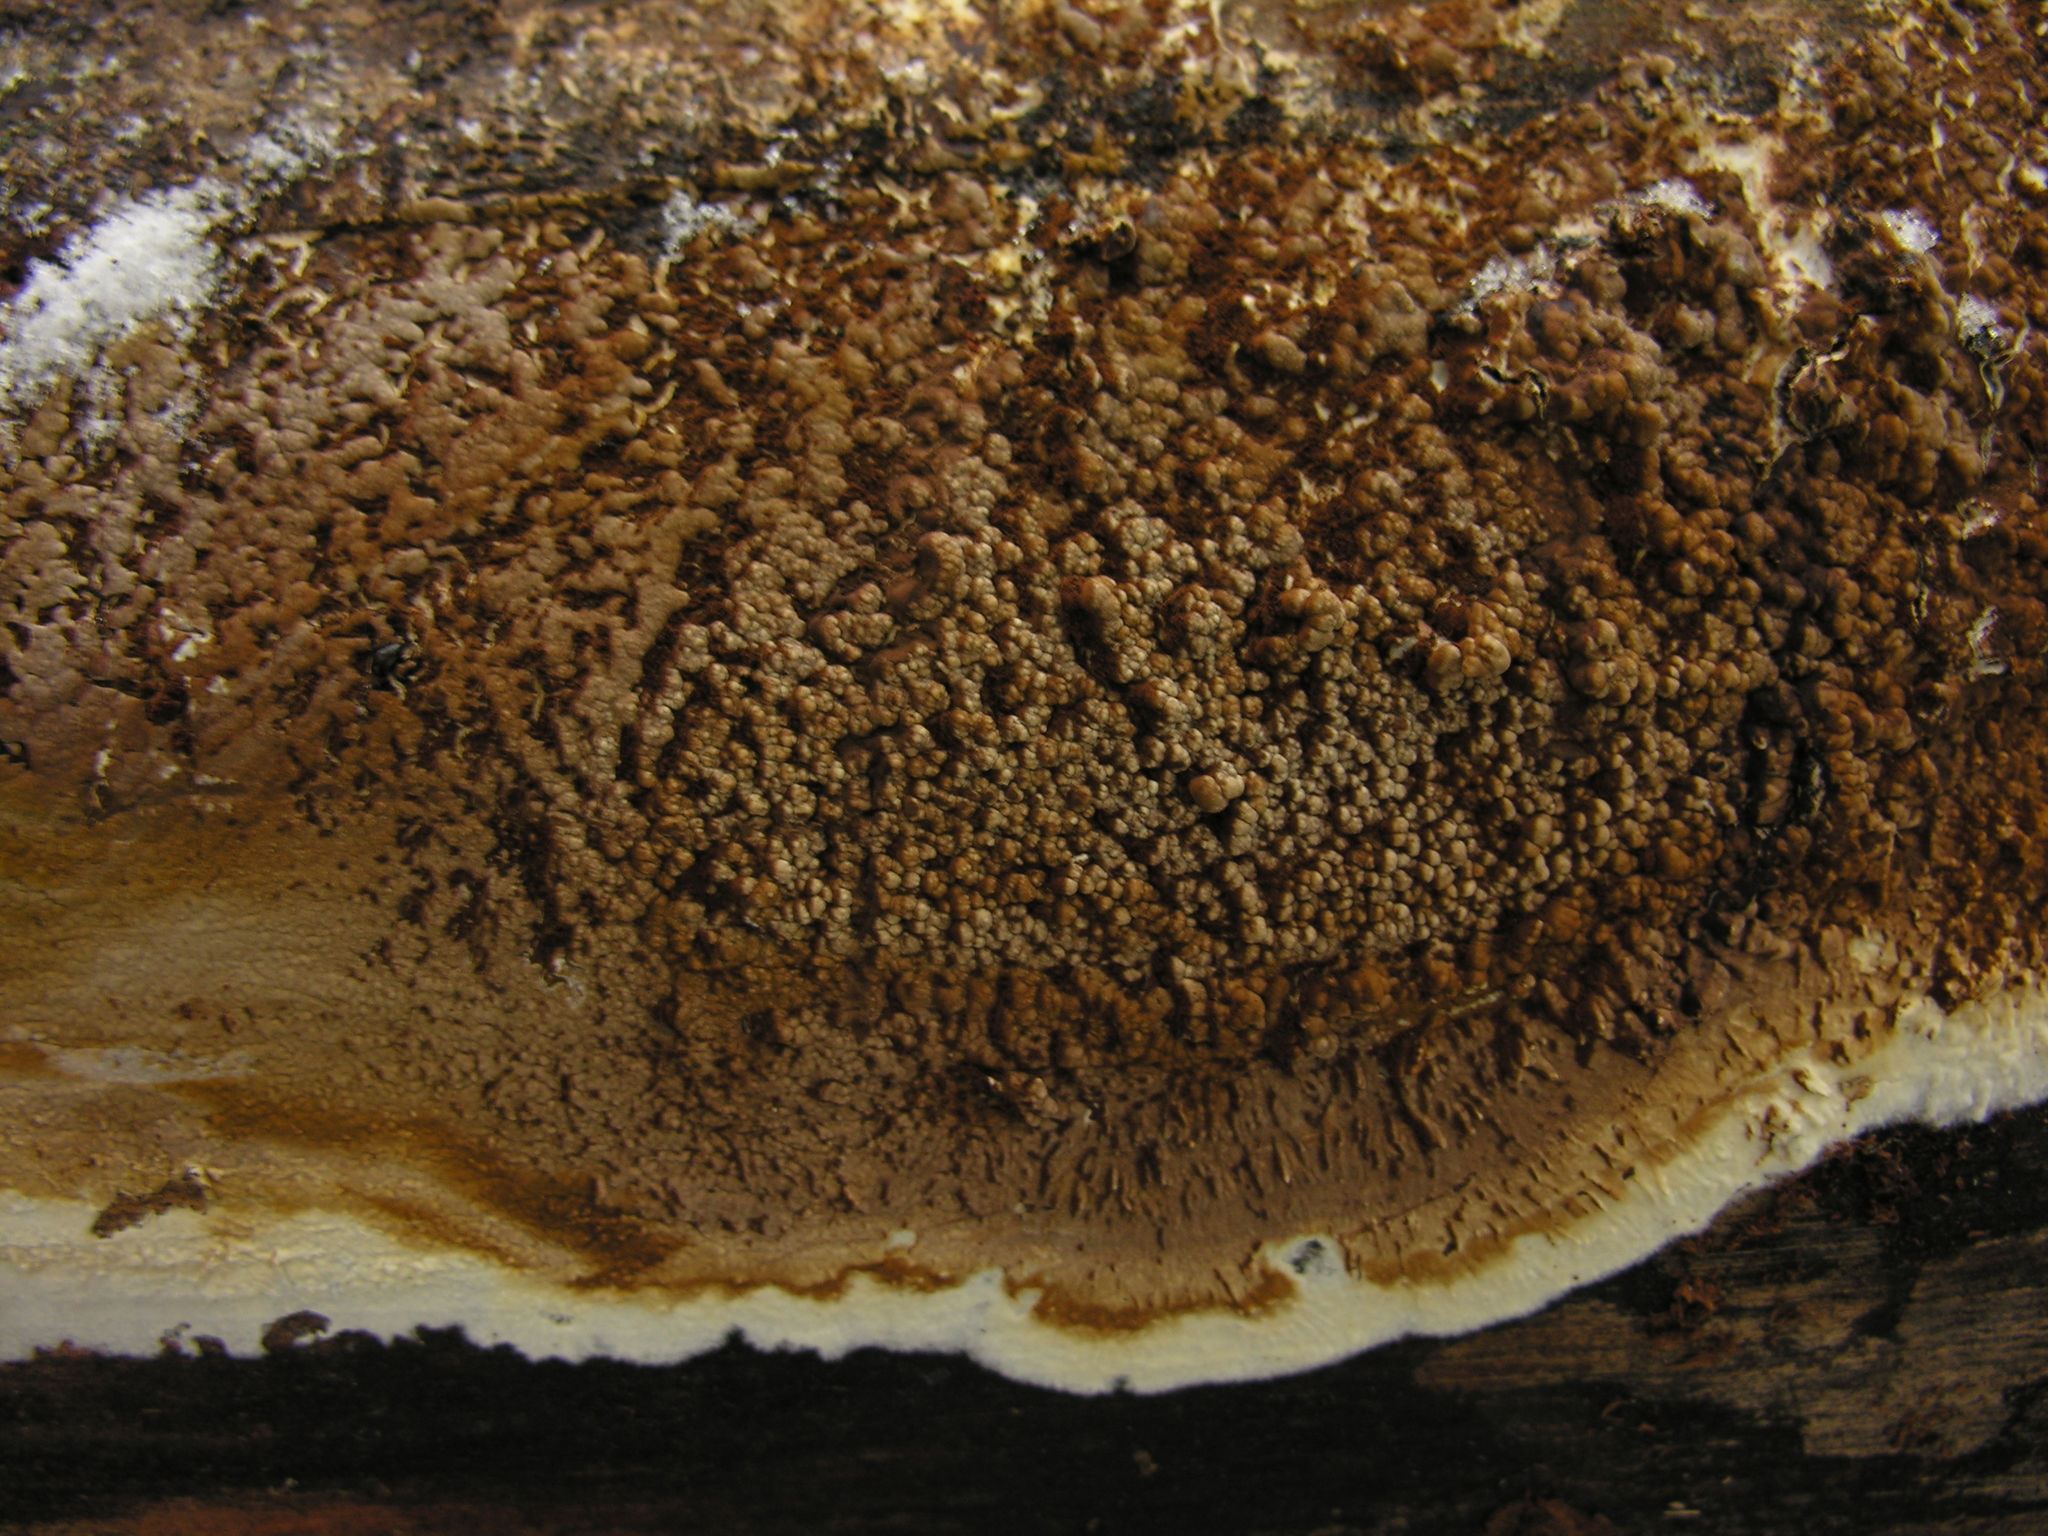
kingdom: Fungi
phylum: Basidiomycota
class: Agaricomycetes
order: Boletales
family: Coniophoraceae
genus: Coniophora
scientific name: Coniophora puteana
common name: Cellar fungus
